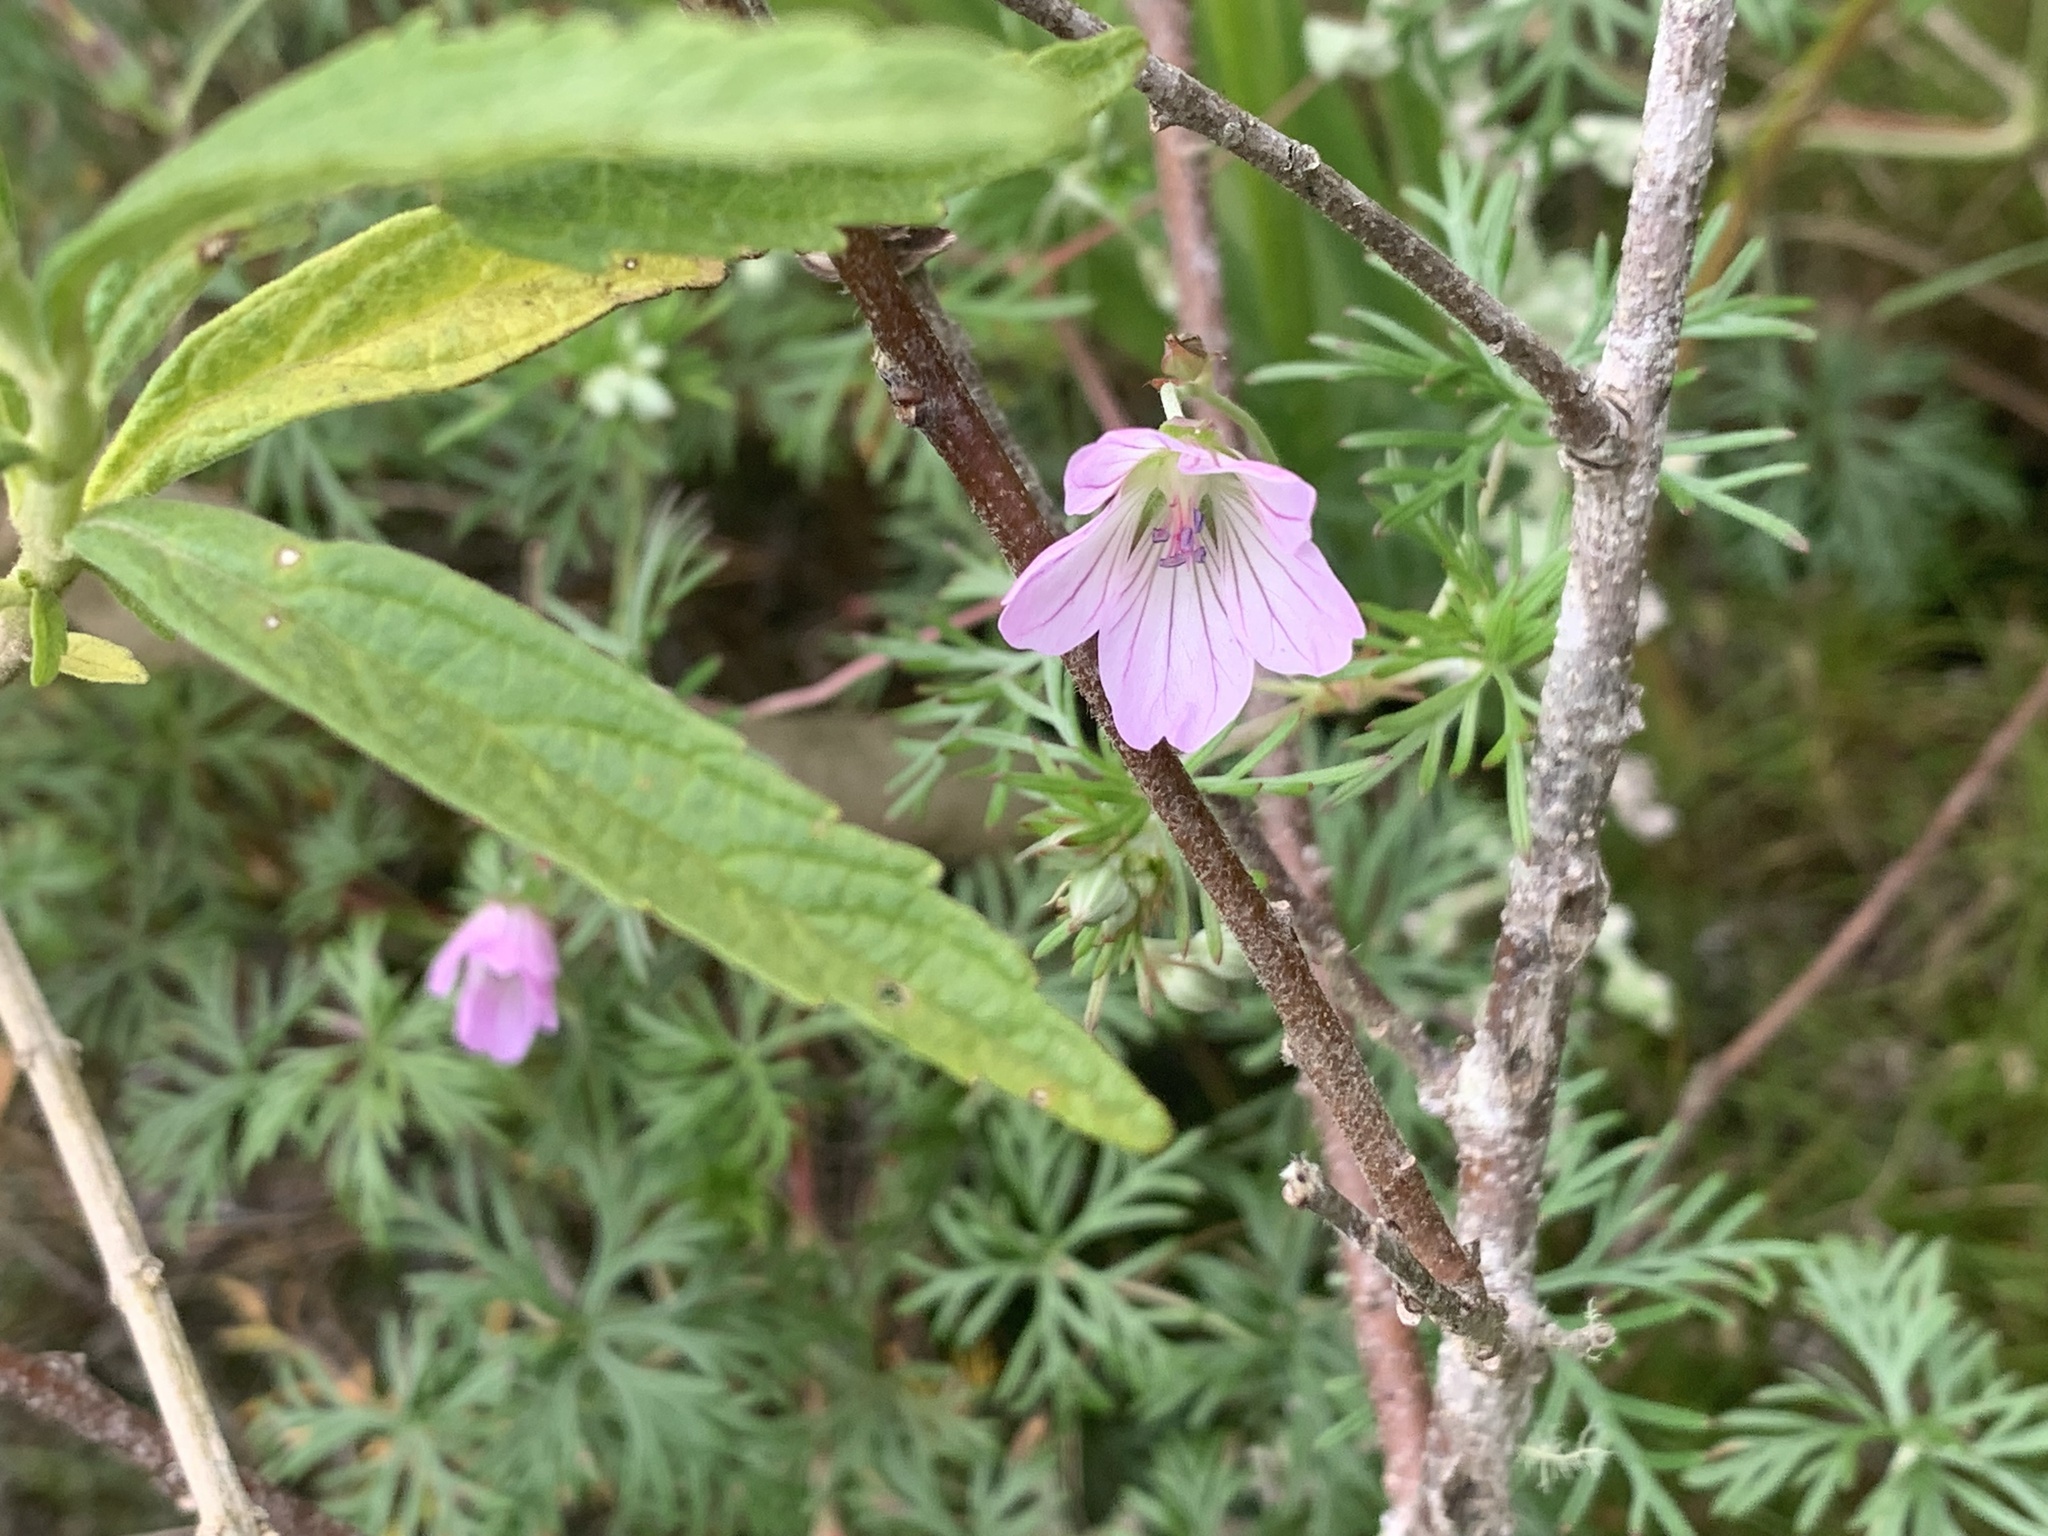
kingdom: Plantae
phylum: Tracheophyta
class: Magnoliopsida
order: Geraniales
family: Geraniaceae
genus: Geranium
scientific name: Geranium incanum
